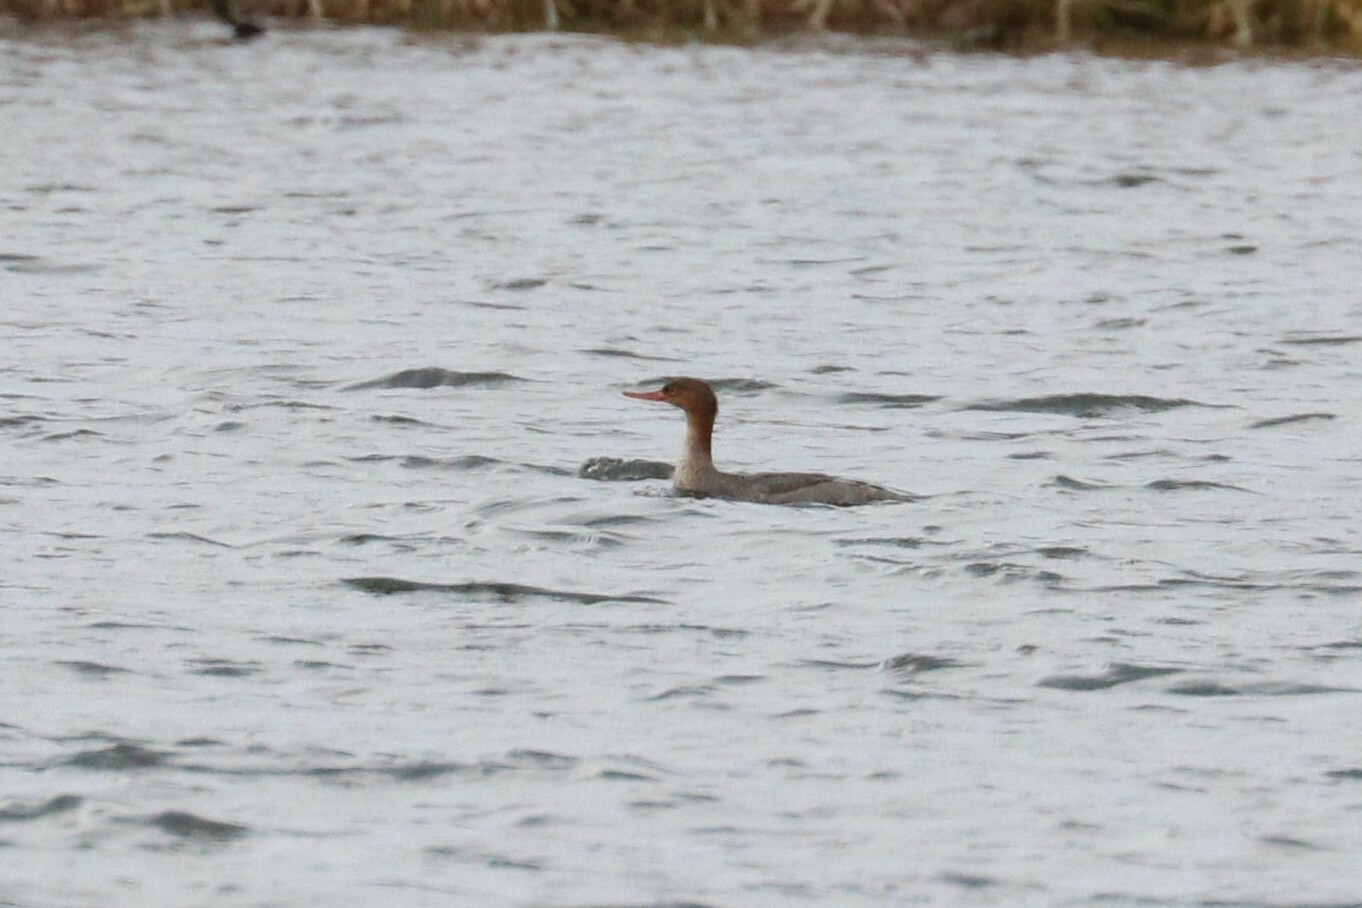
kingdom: Animalia
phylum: Chordata
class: Aves
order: Anseriformes
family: Anatidae
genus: Mergus
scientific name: Mergus serrator
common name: Red-breasted merganser
